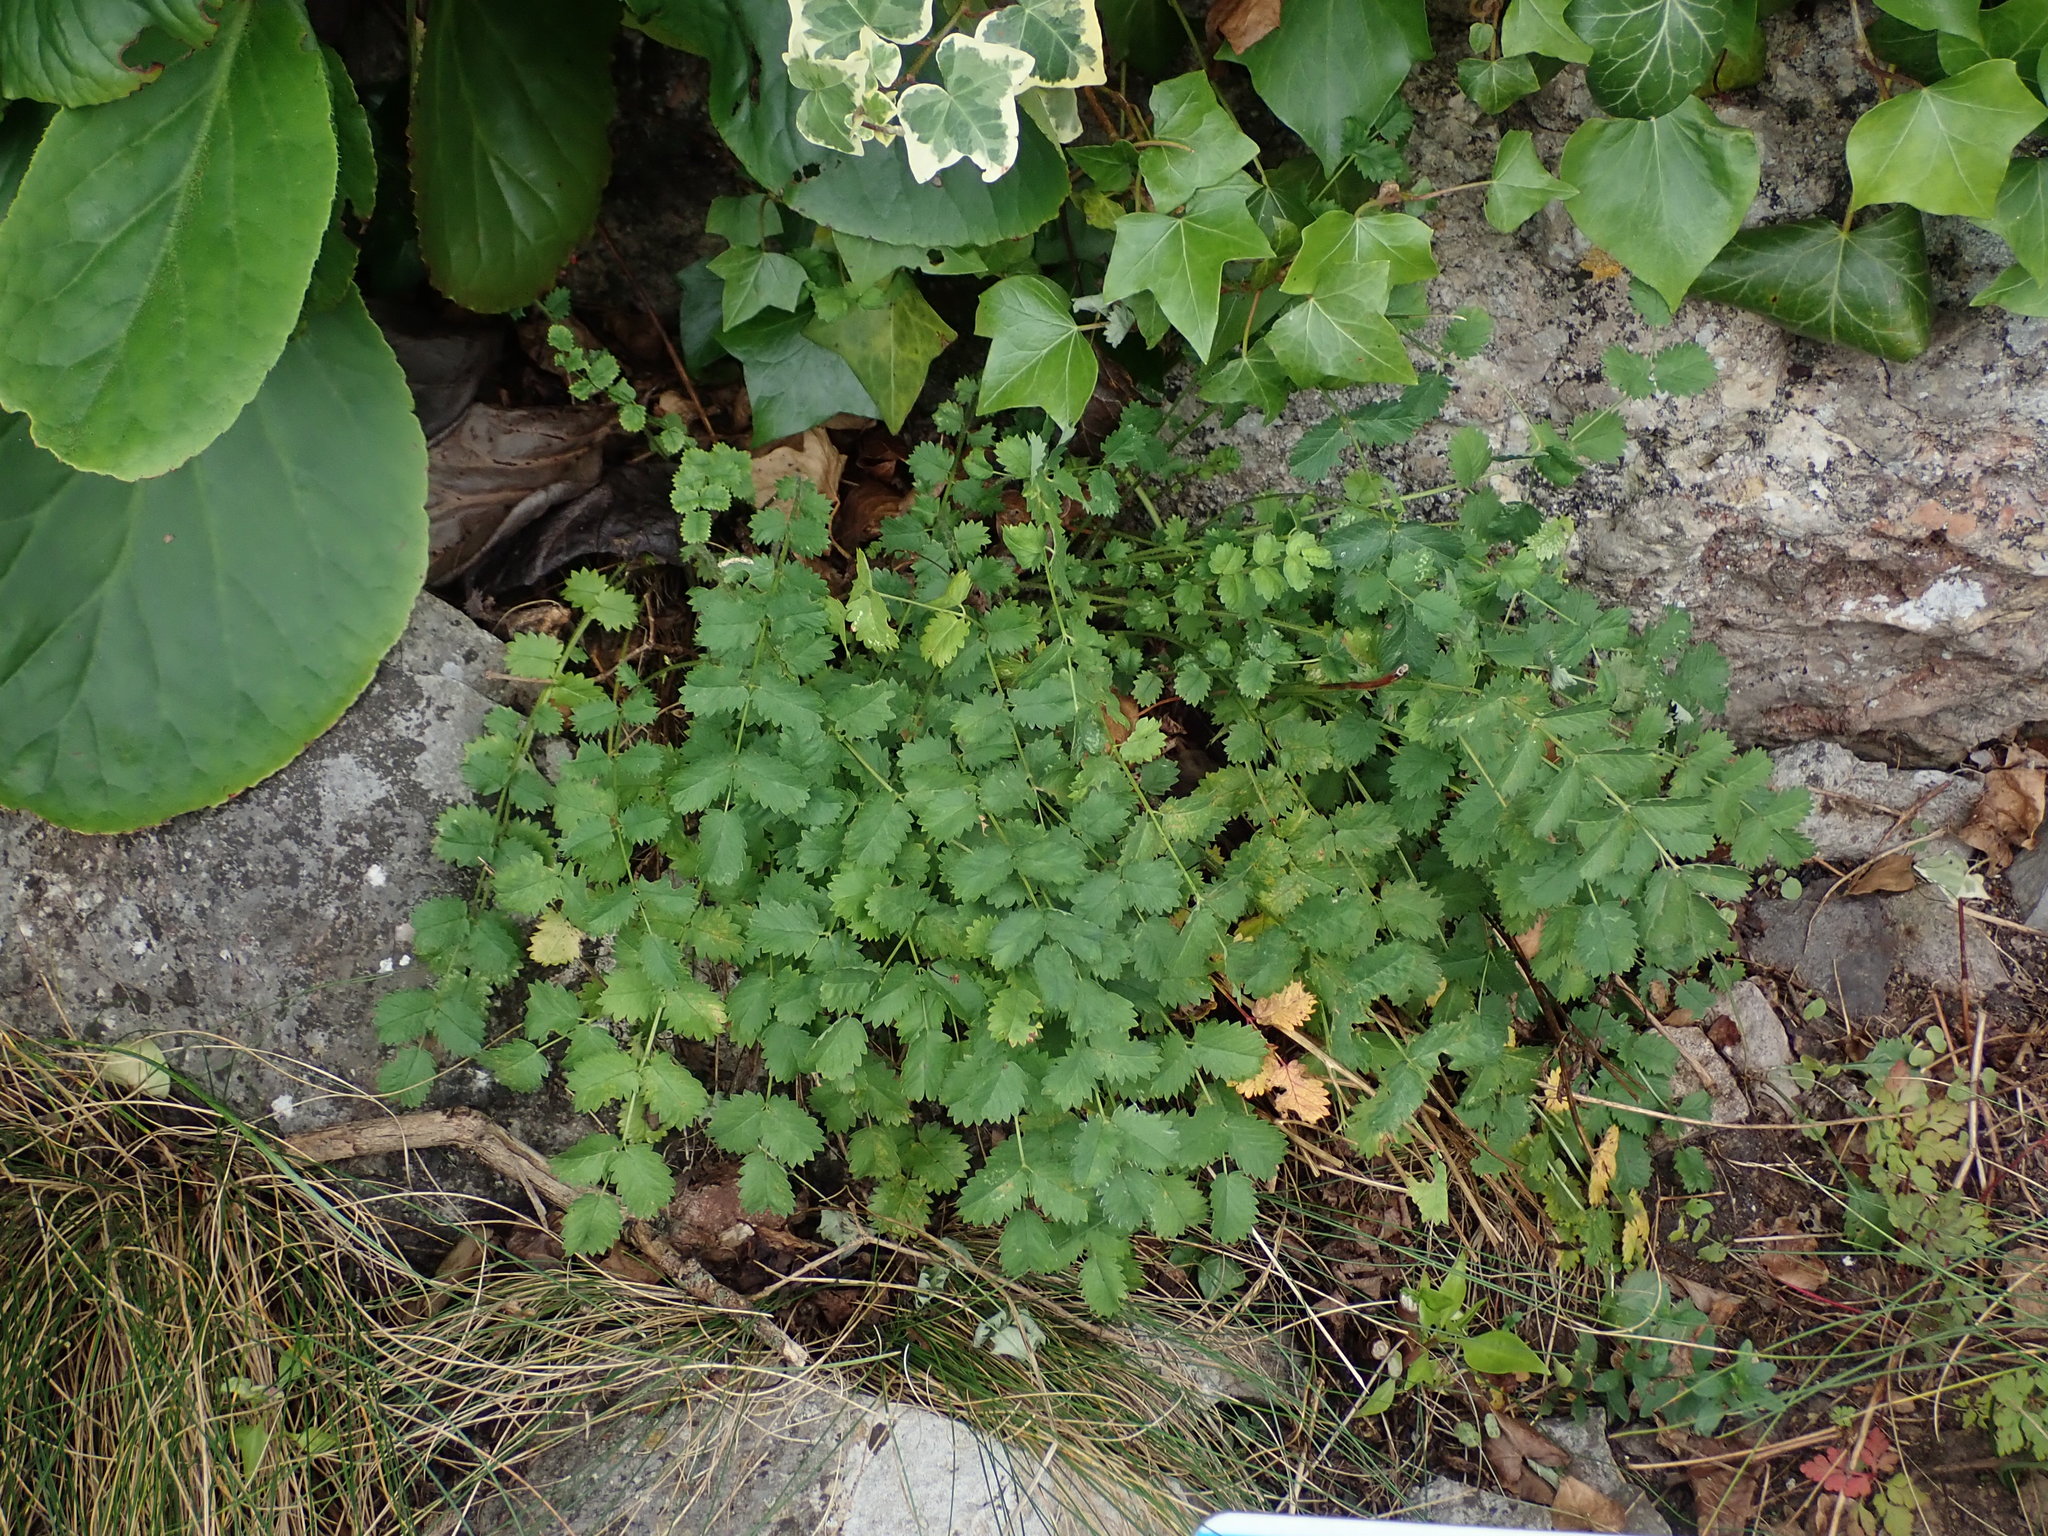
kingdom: Plantae
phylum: Tracheophyta
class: Magnoliopsida
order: Rosales
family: Rosaceae
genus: Poterium
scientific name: Poterium sanguisorba
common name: Salad burnet
